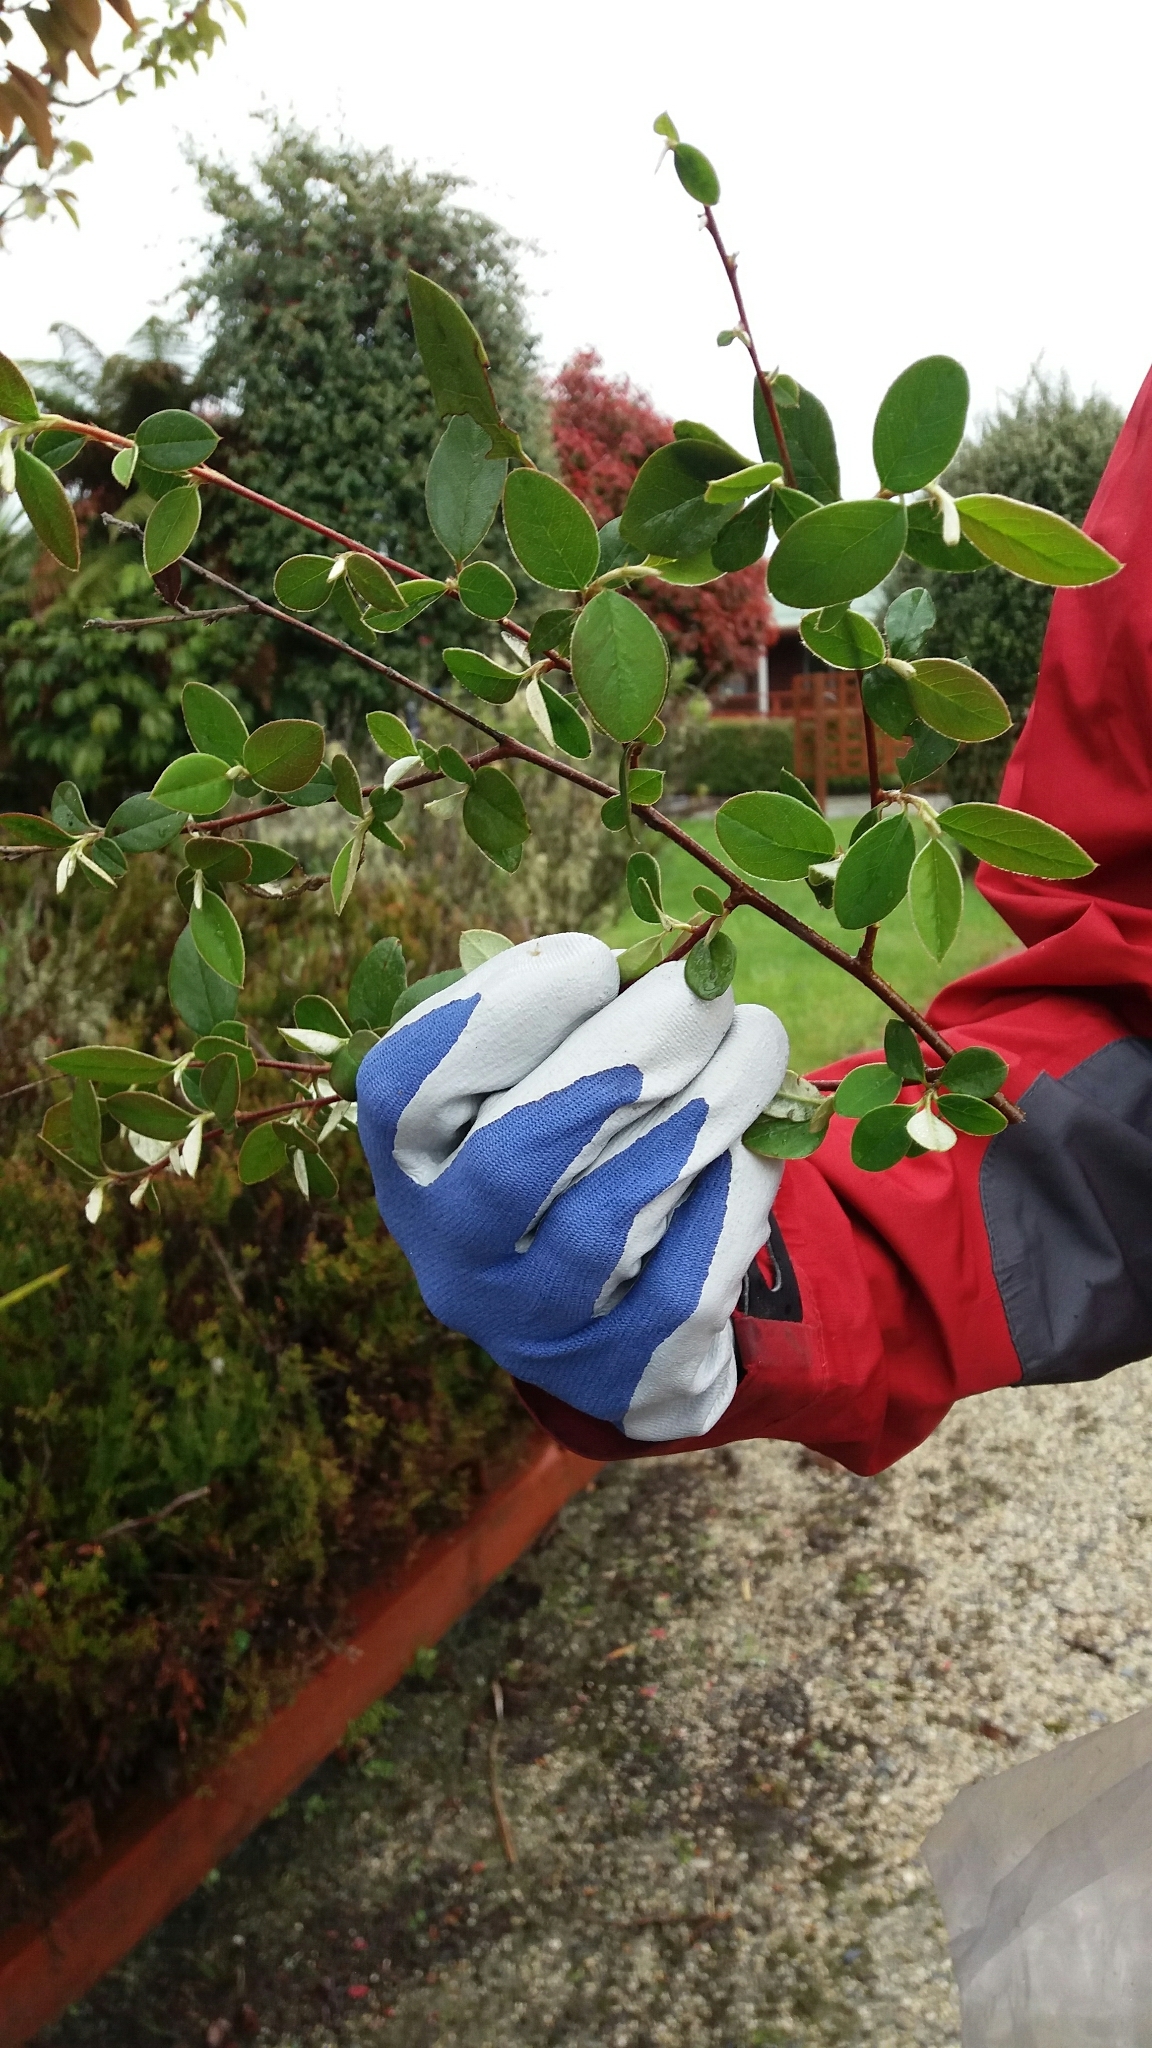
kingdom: Plantae
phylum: Tracheophyta
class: Magnoliopsida
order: Rosales
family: Rosaceae
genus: Cotoneaster
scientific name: Cotoneaster glaucophyllus
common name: Glaucous cotoneaster
